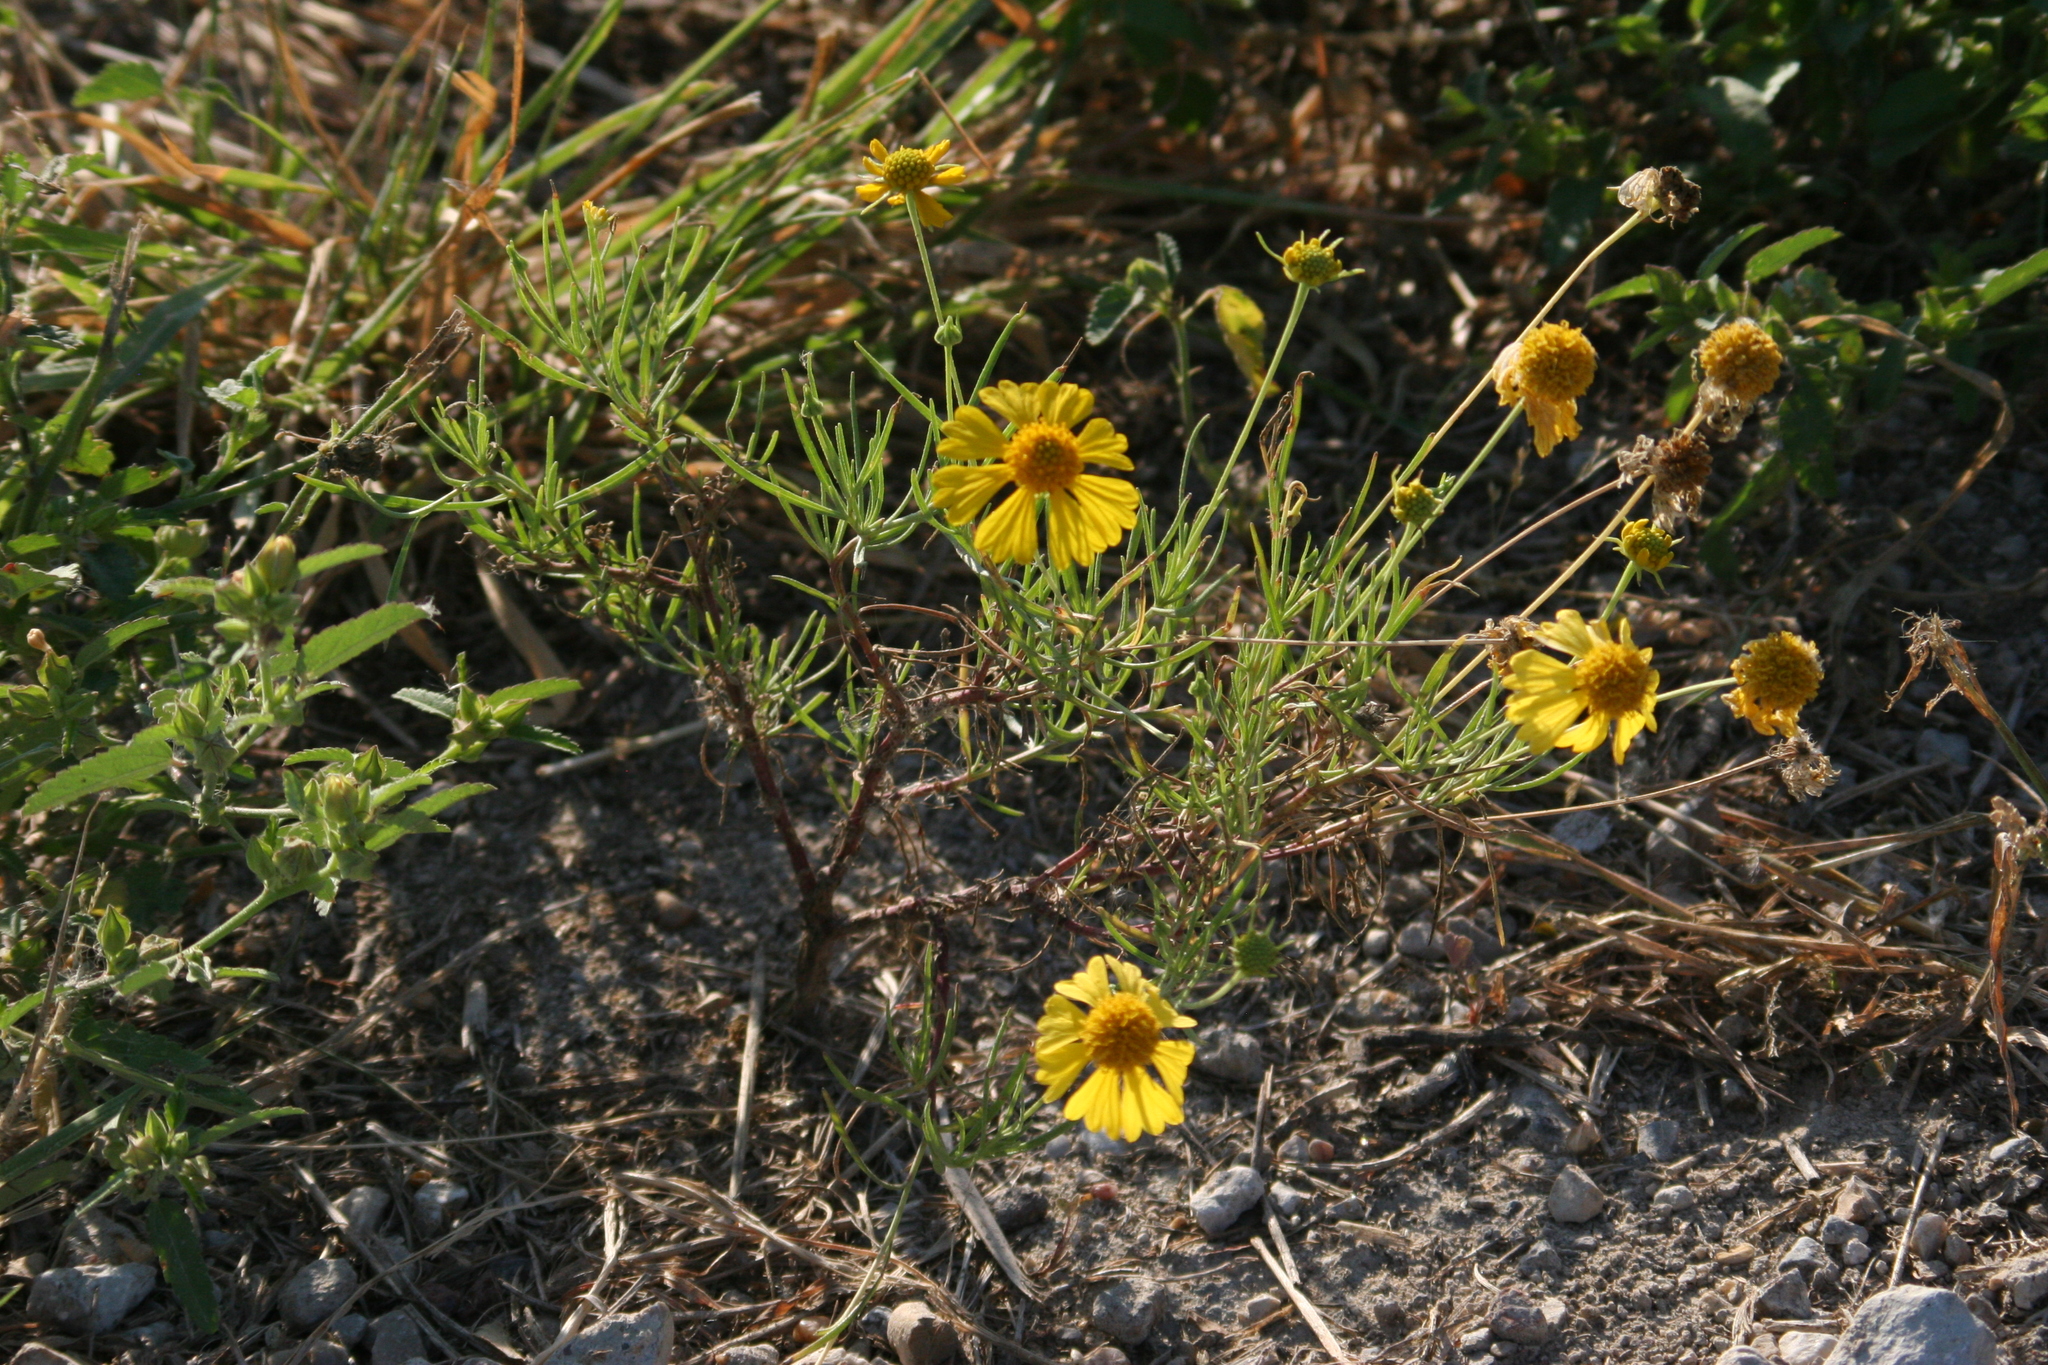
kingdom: Plantae
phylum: Tracheophyta
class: Magnoliopsida
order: Asterales
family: Asteraceae
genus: Helenium
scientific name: Helenium amarum
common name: Bitter sneezeweed
